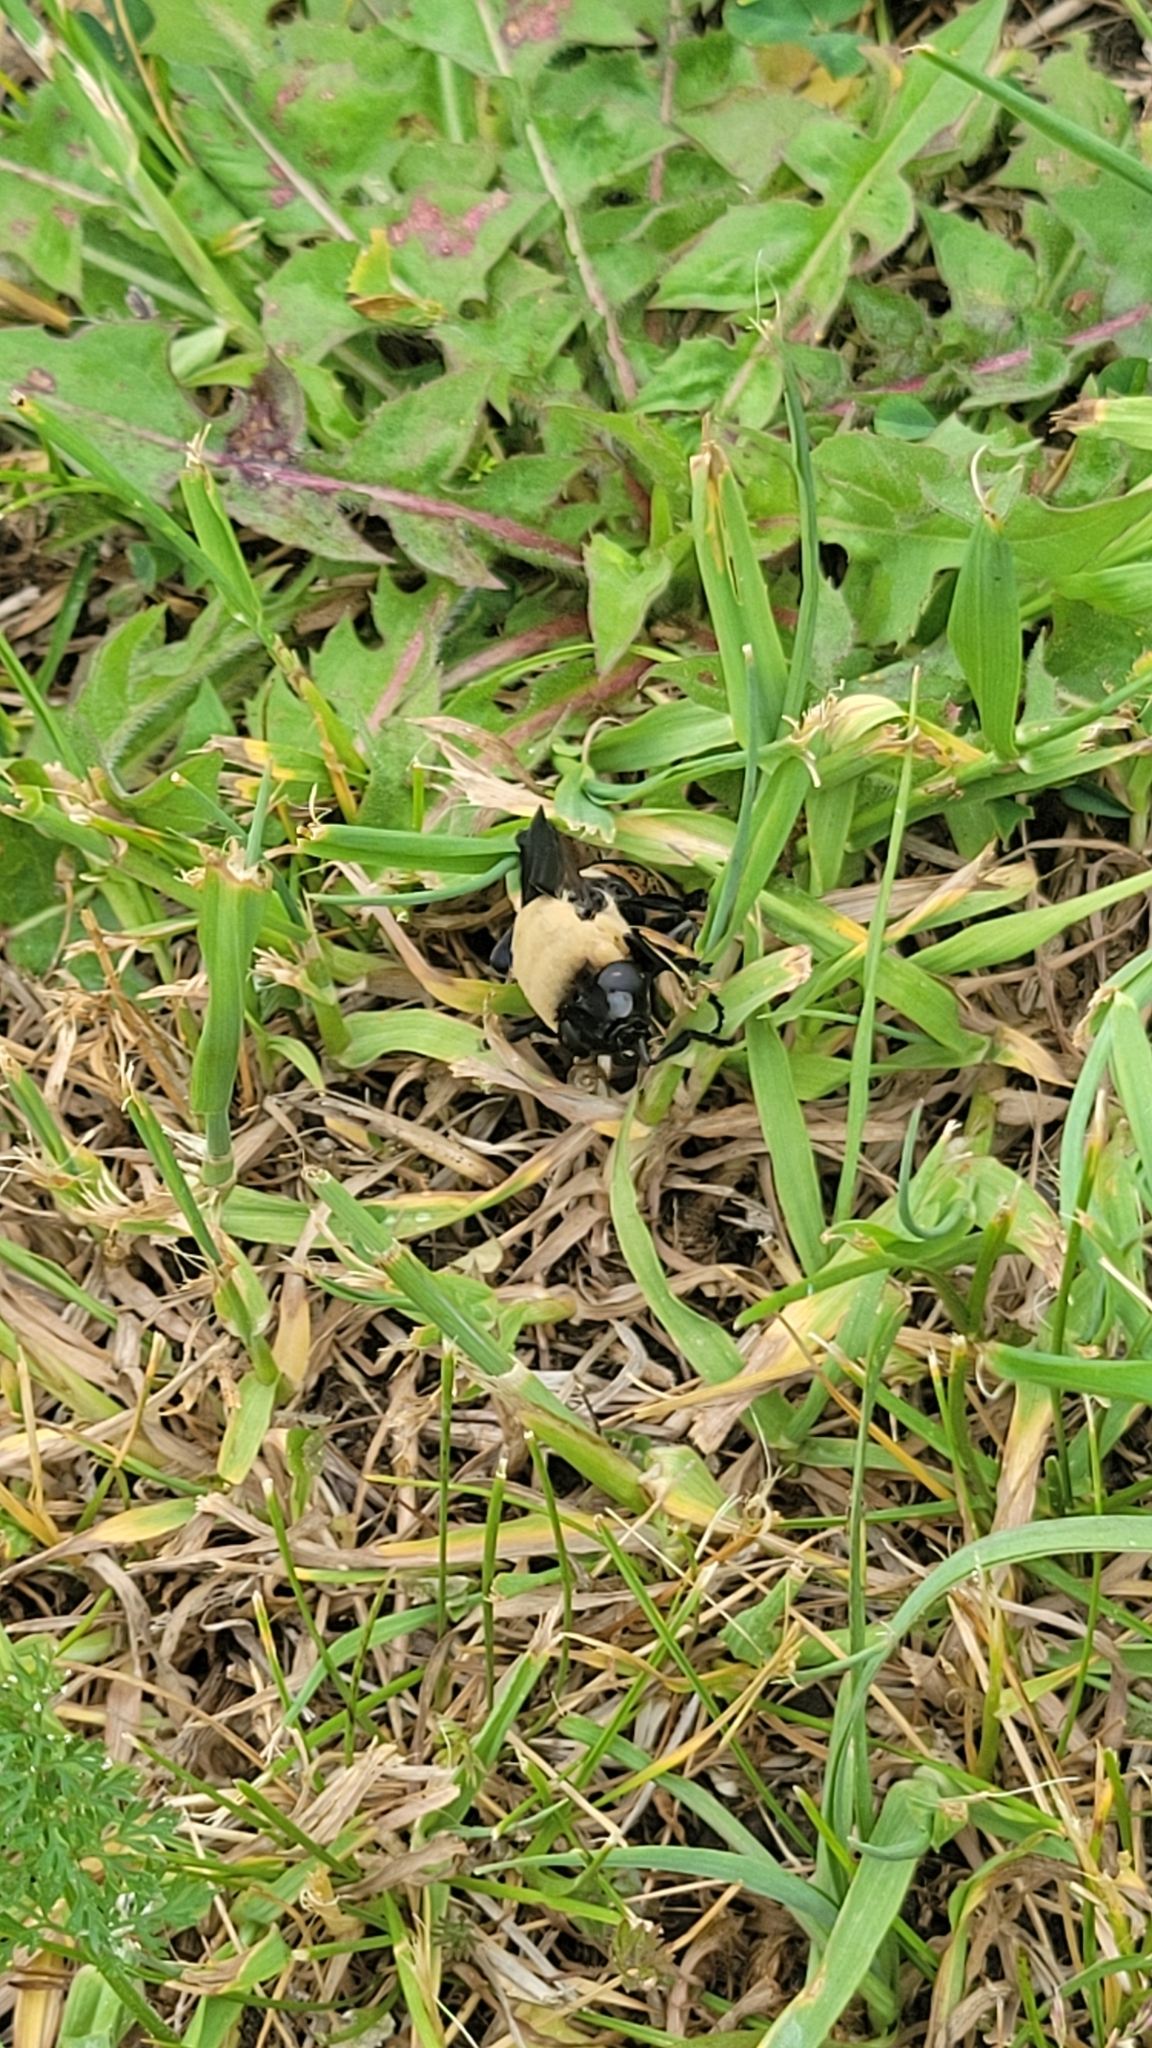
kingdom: Animalia
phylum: Arthropoda
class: Insecta
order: Diptera
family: Oestridae
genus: Cuterebra
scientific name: Cuterebra abdominalis
